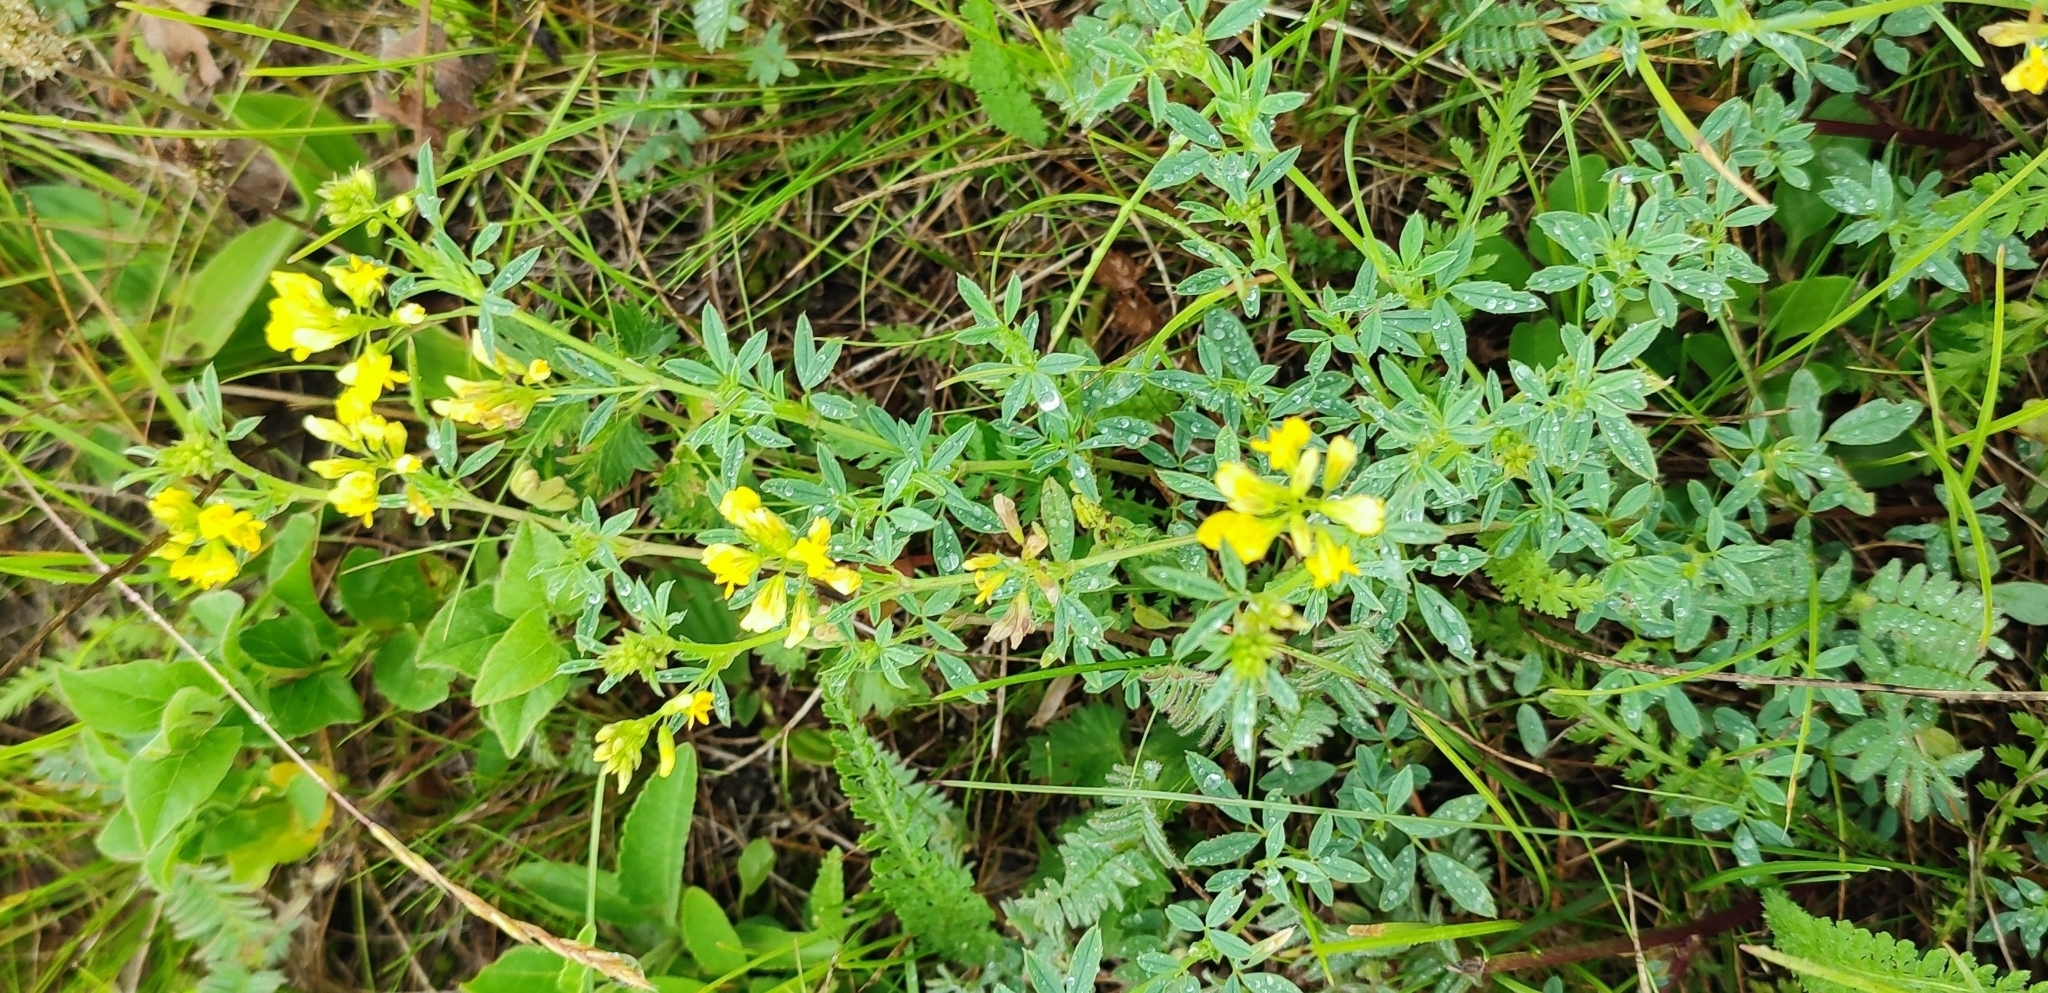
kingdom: Plantae
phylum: Tracheophyta
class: Magnoliopsida
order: Fabales
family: Fabaceae
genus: Medicago
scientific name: Medicago falcata
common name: Sickle medick
